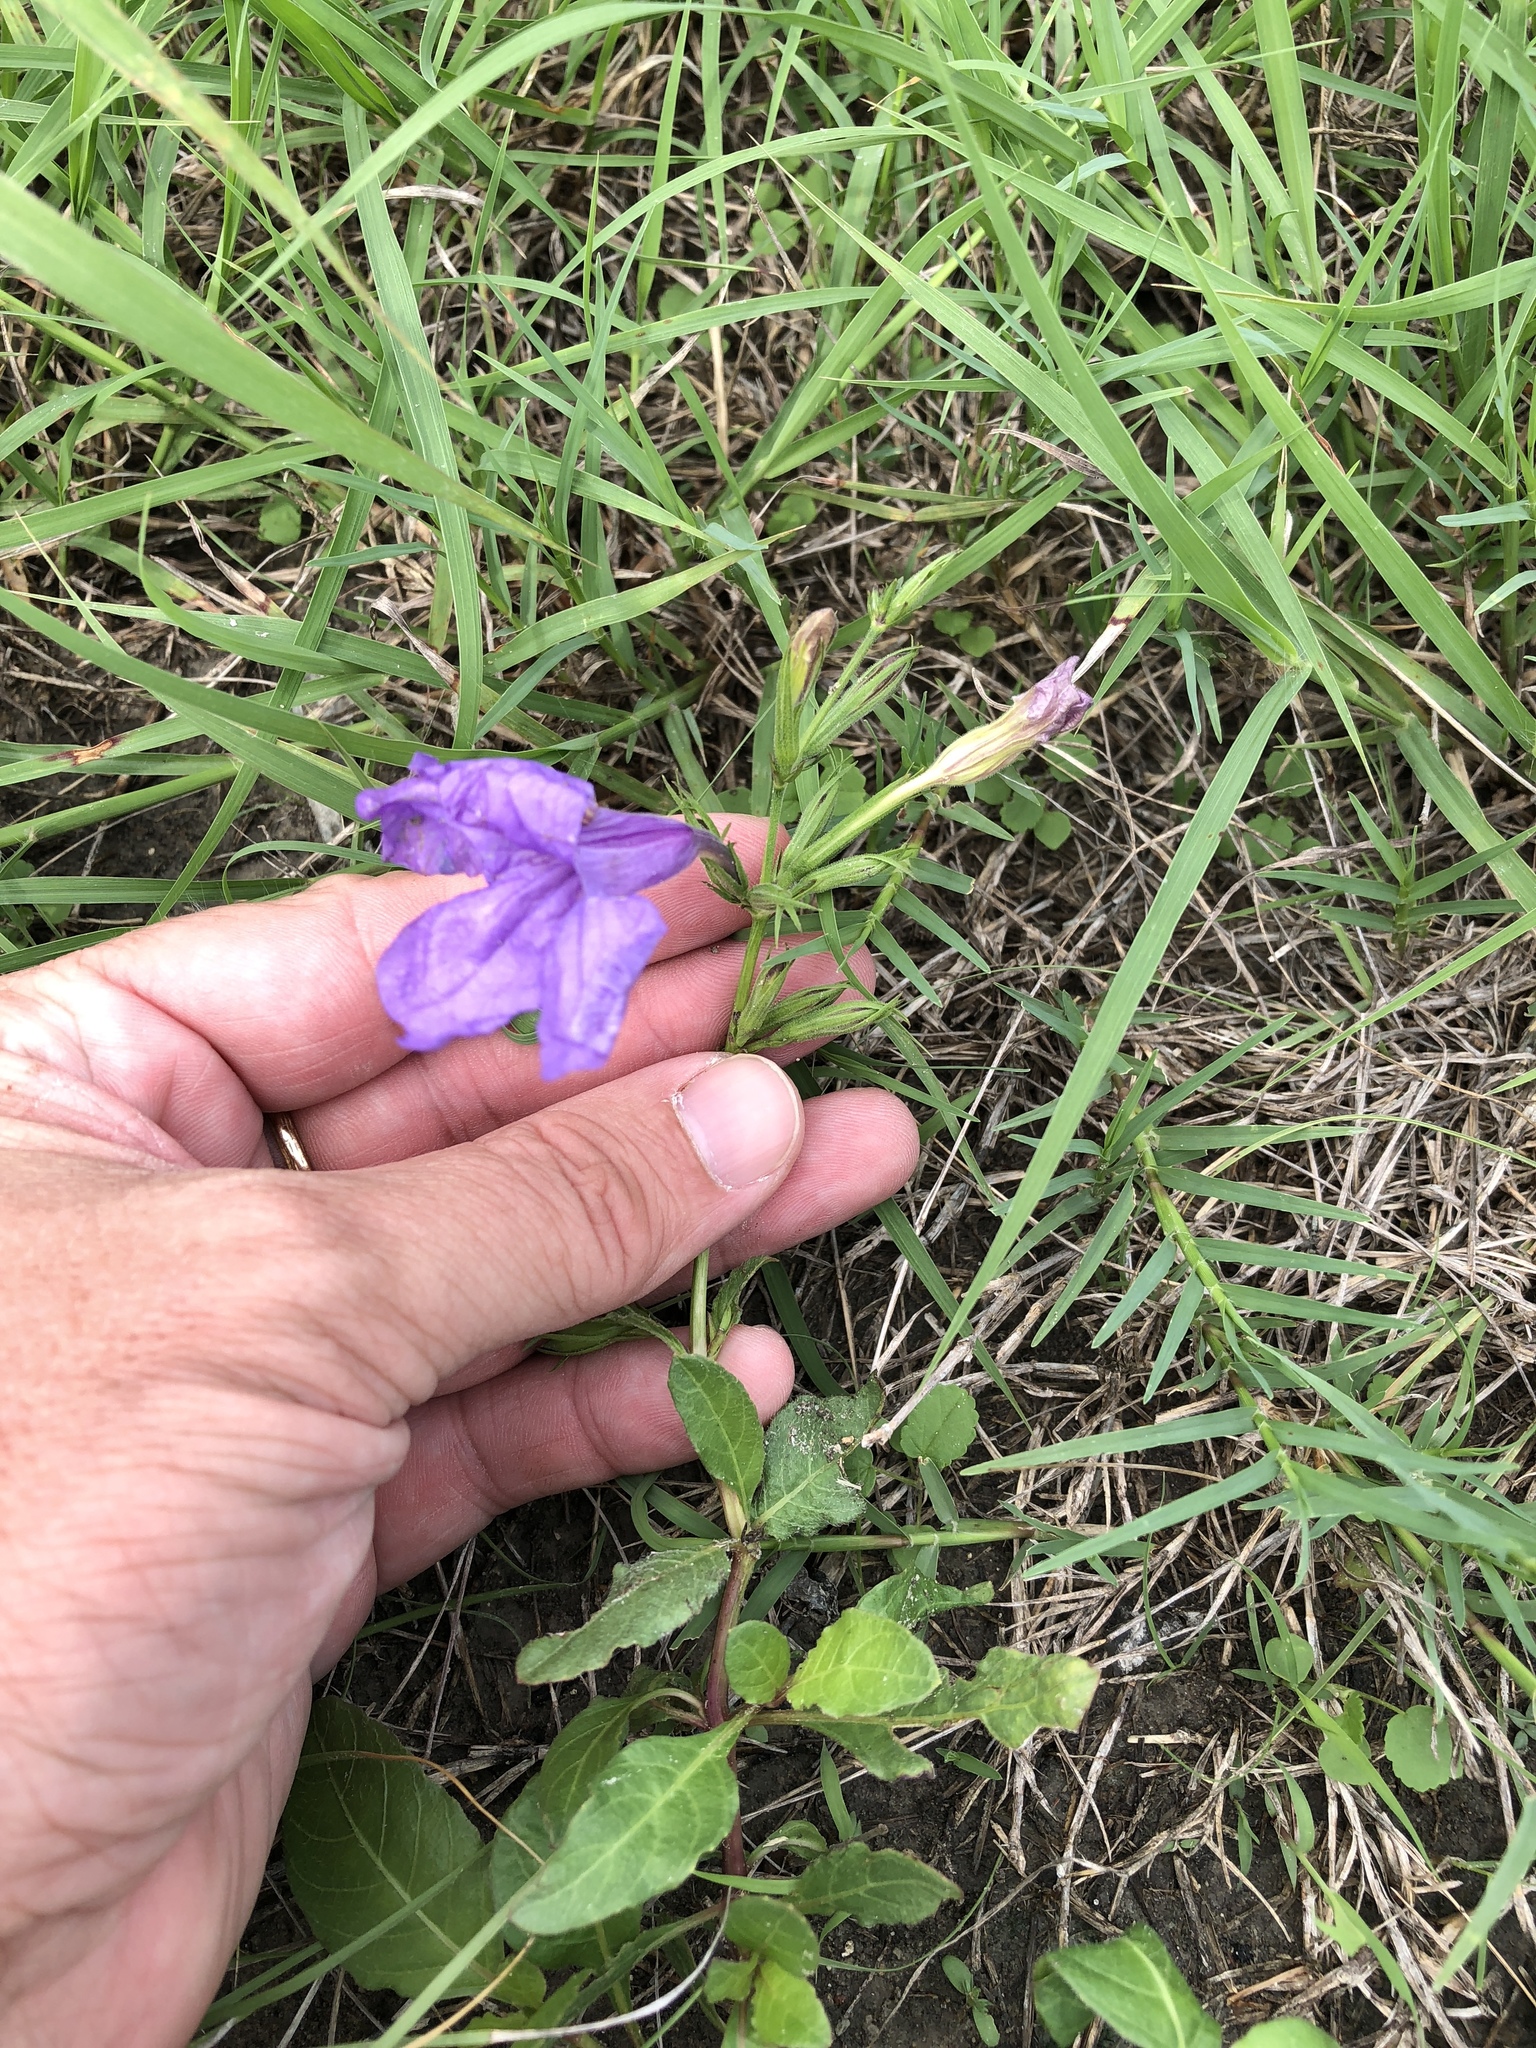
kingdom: Plantae
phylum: Tracheophyta
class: Magnoliopsida
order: Lamiales
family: Acanthaceae
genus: Ruellia
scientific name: Ruellia ciliatiflora
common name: Hairyflower wild petunia
